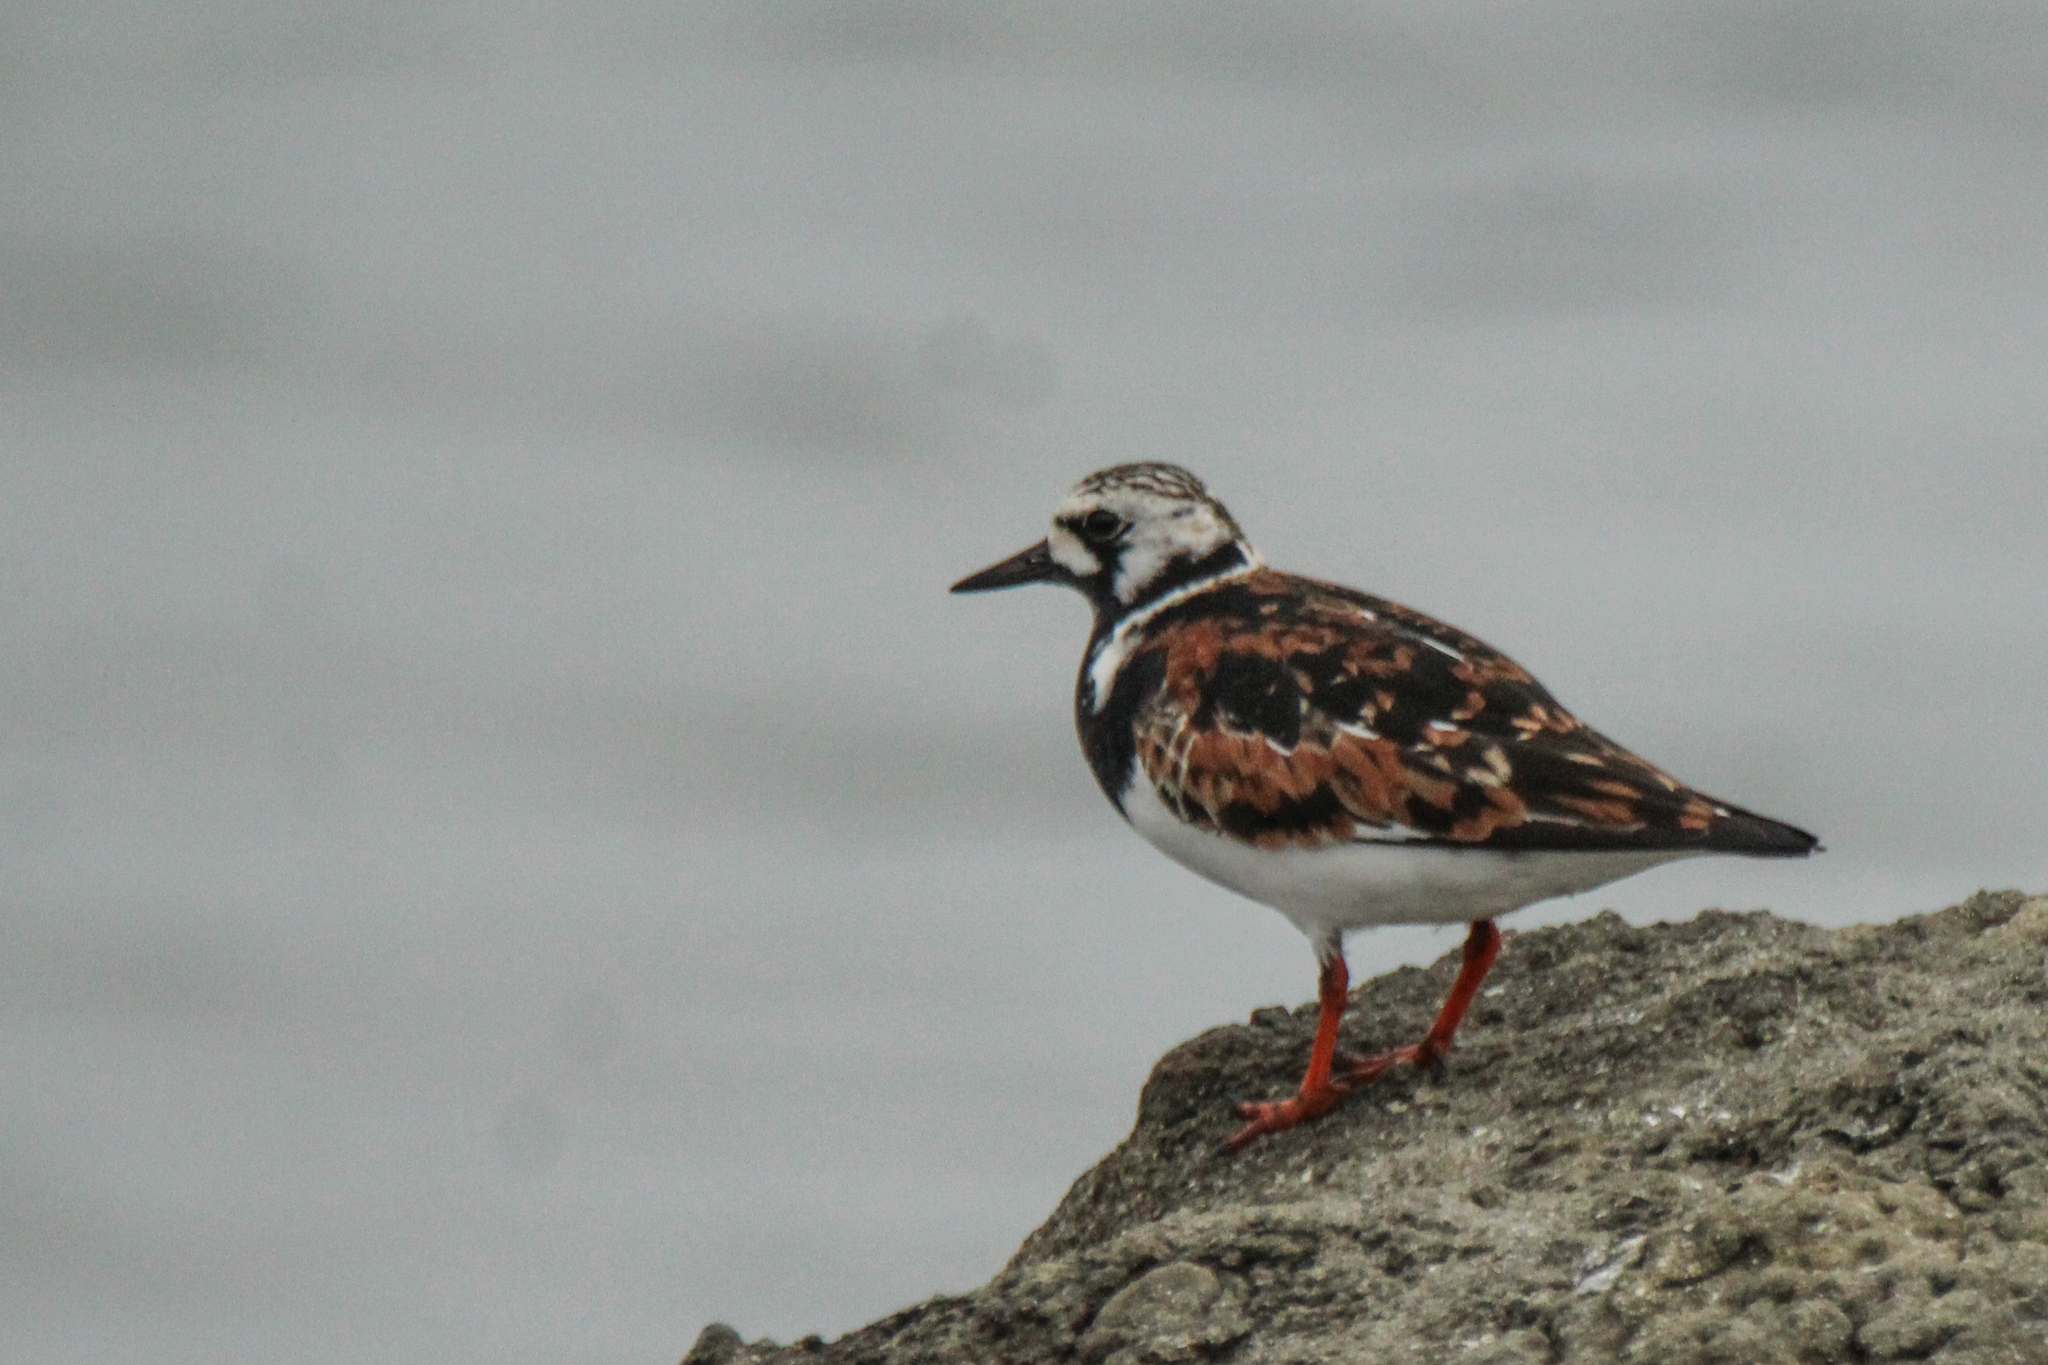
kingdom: Animalia
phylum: Chordata
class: Aves
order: Charadriiformes
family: Scolopacidae
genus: Arenaria
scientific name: Arenaria interpres
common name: Ruddy turnstone
